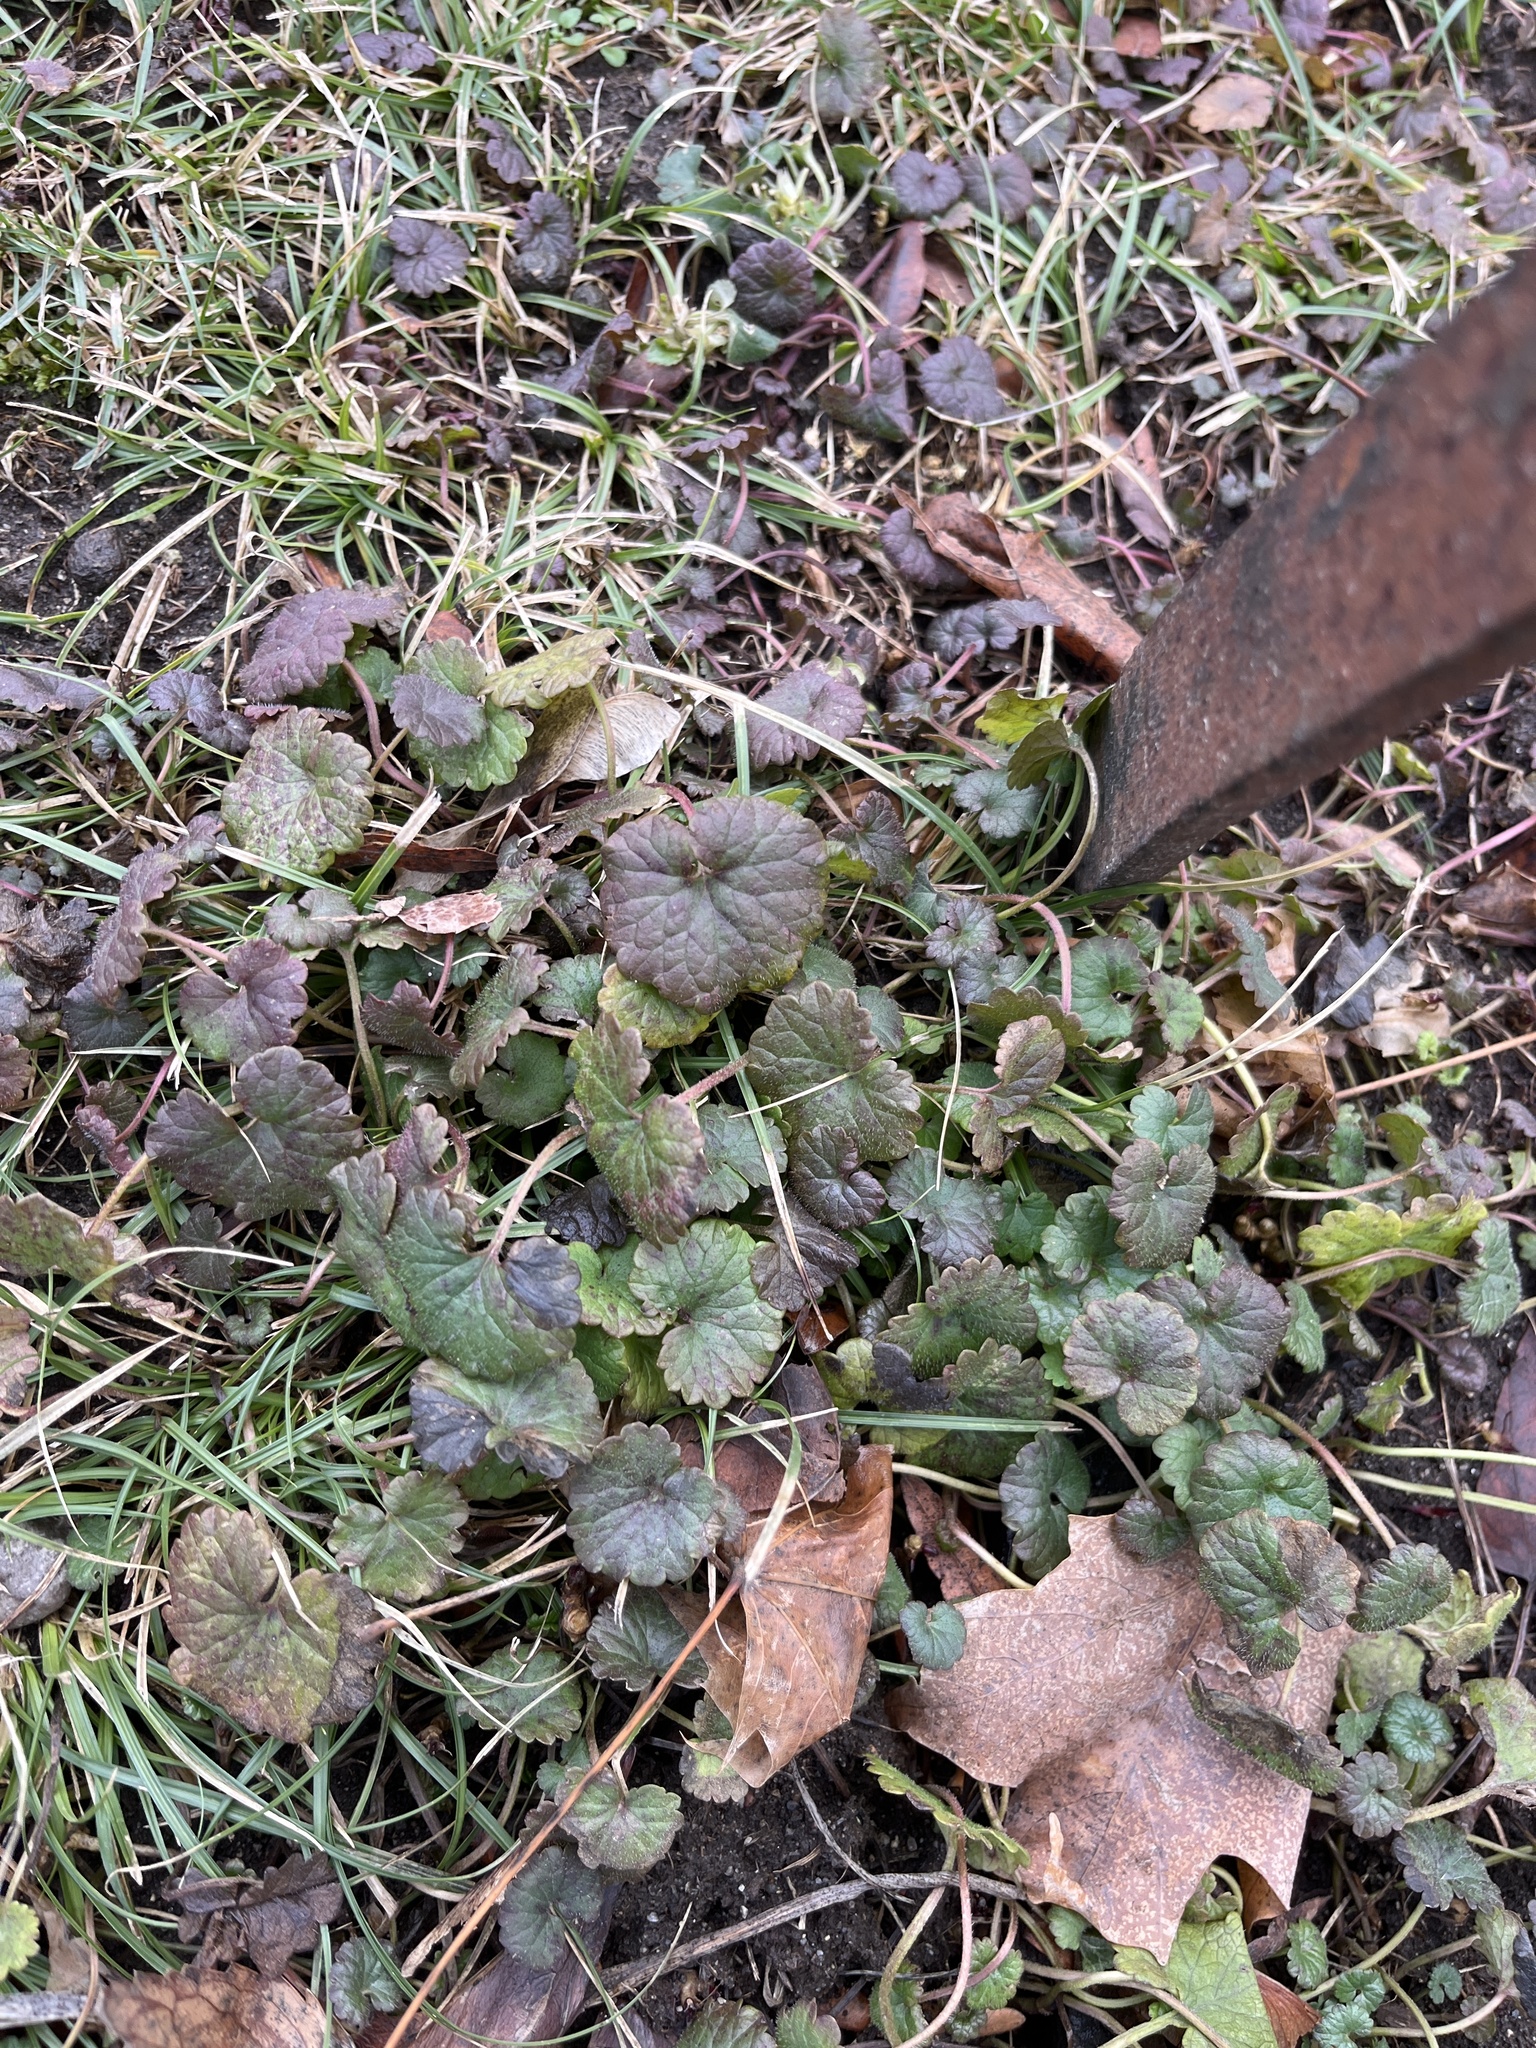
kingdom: Plantae
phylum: Tracheophyta
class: Magnoliopsida
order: Lamiales
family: Lamiaceae
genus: Glechoma
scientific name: Glechoma hederacea
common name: Ground ivy
